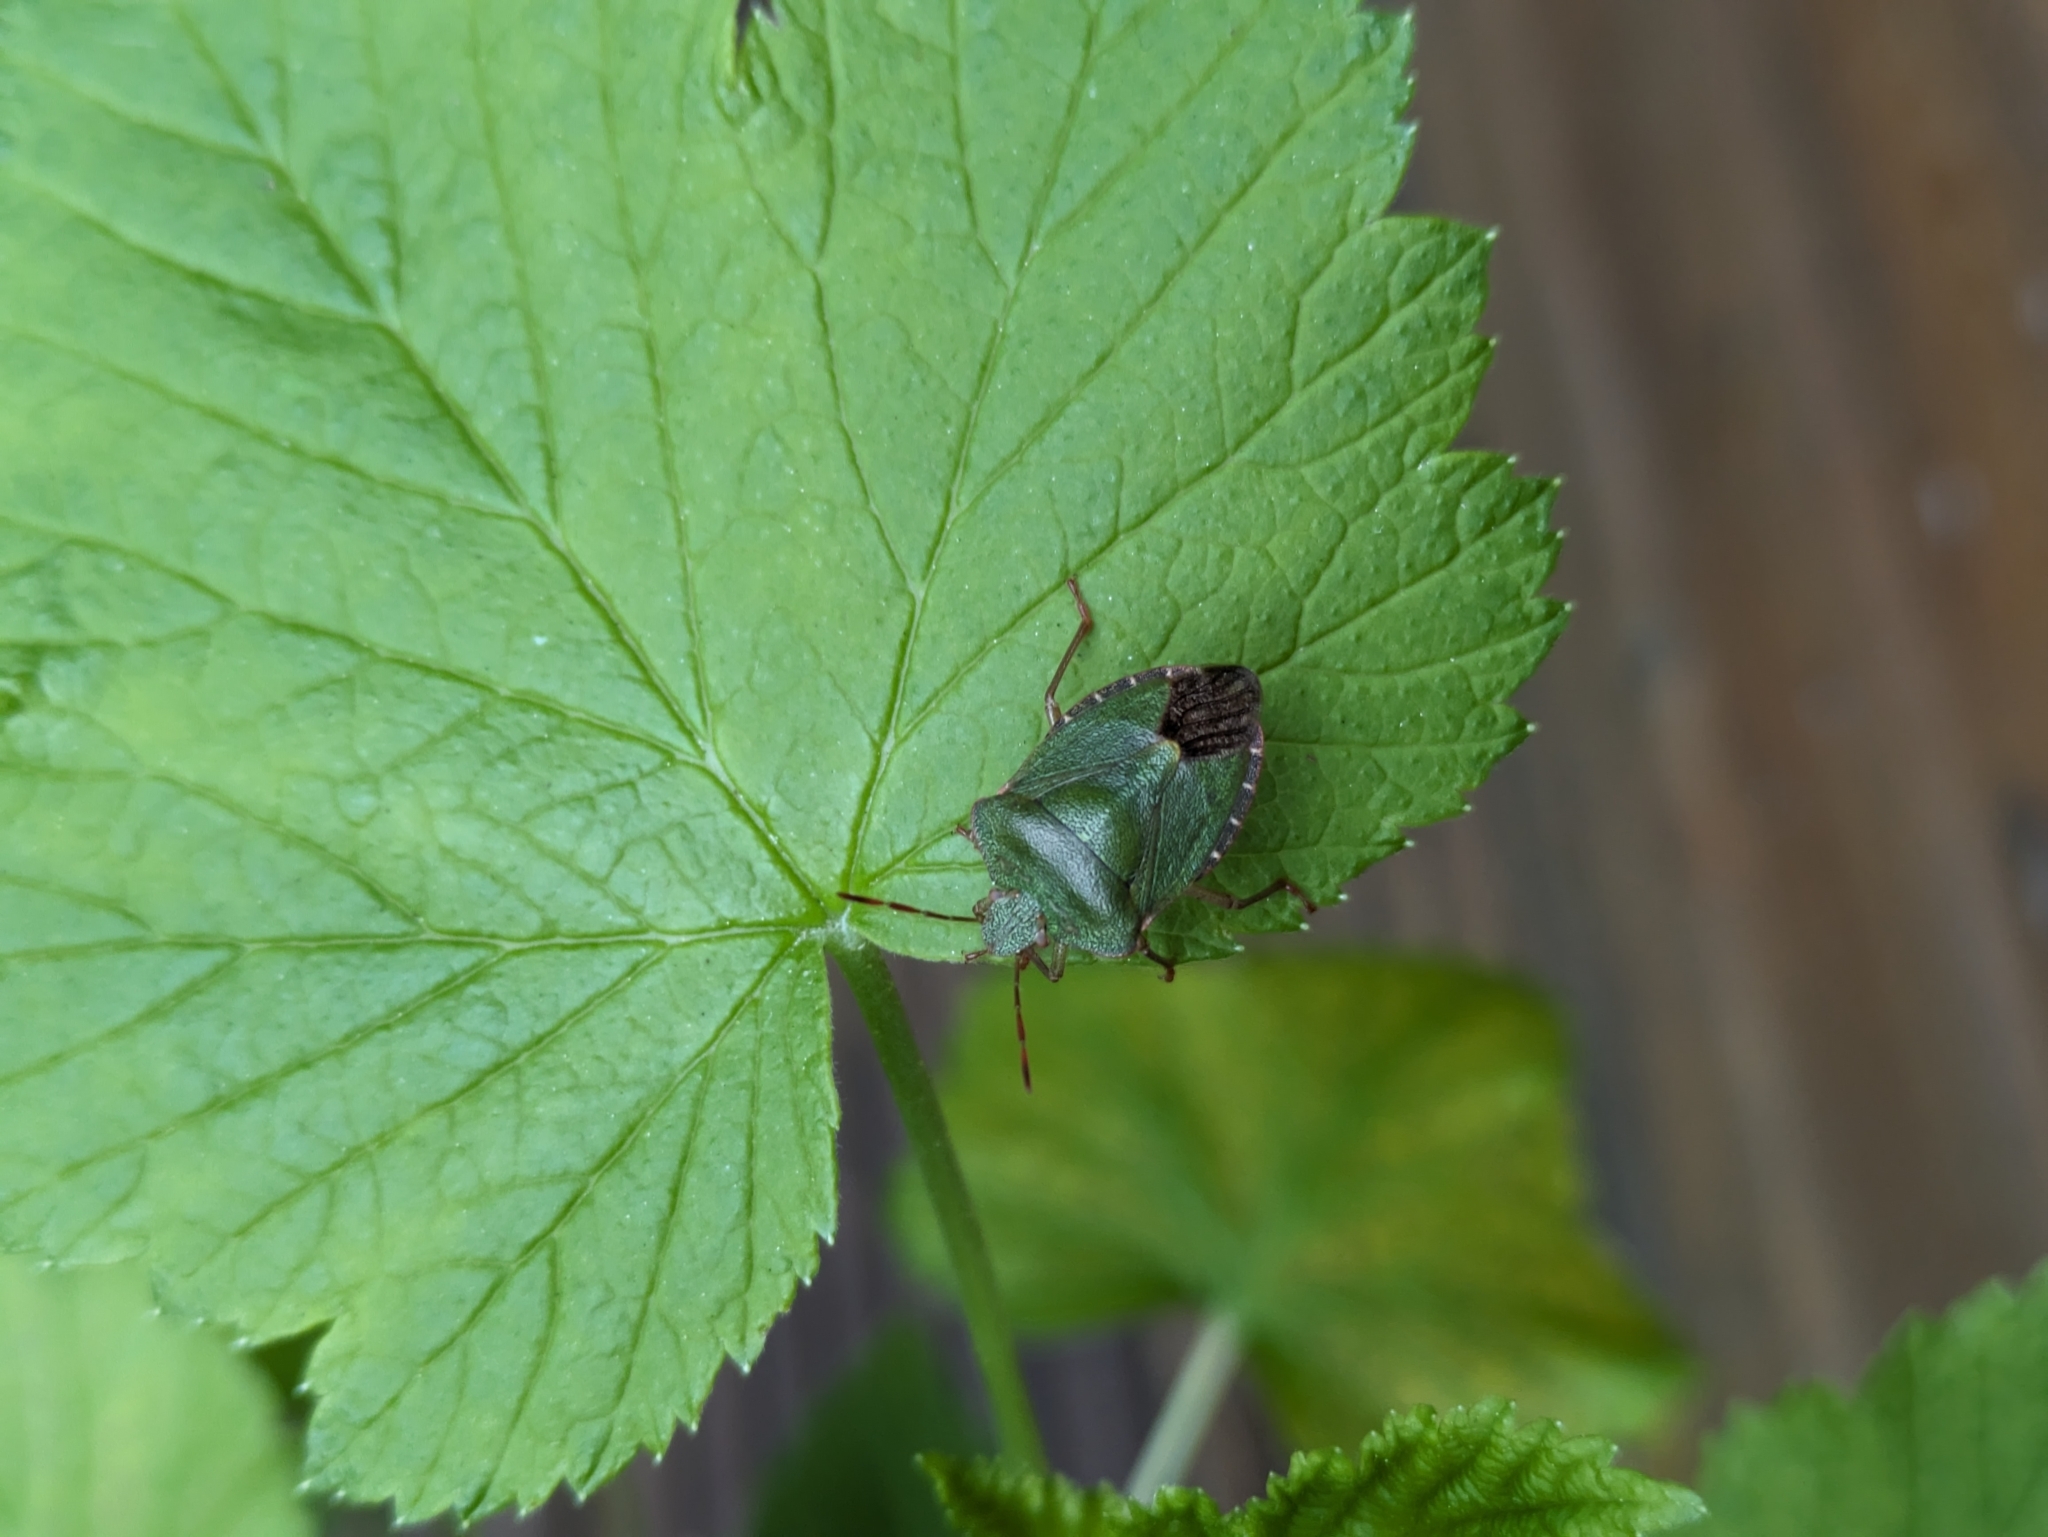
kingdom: Animalia
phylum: Arthropoda
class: Insecta
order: Hemiptera
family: Pentatomidae
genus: Palomena
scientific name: Palomena prasina
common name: Green shieldbug
